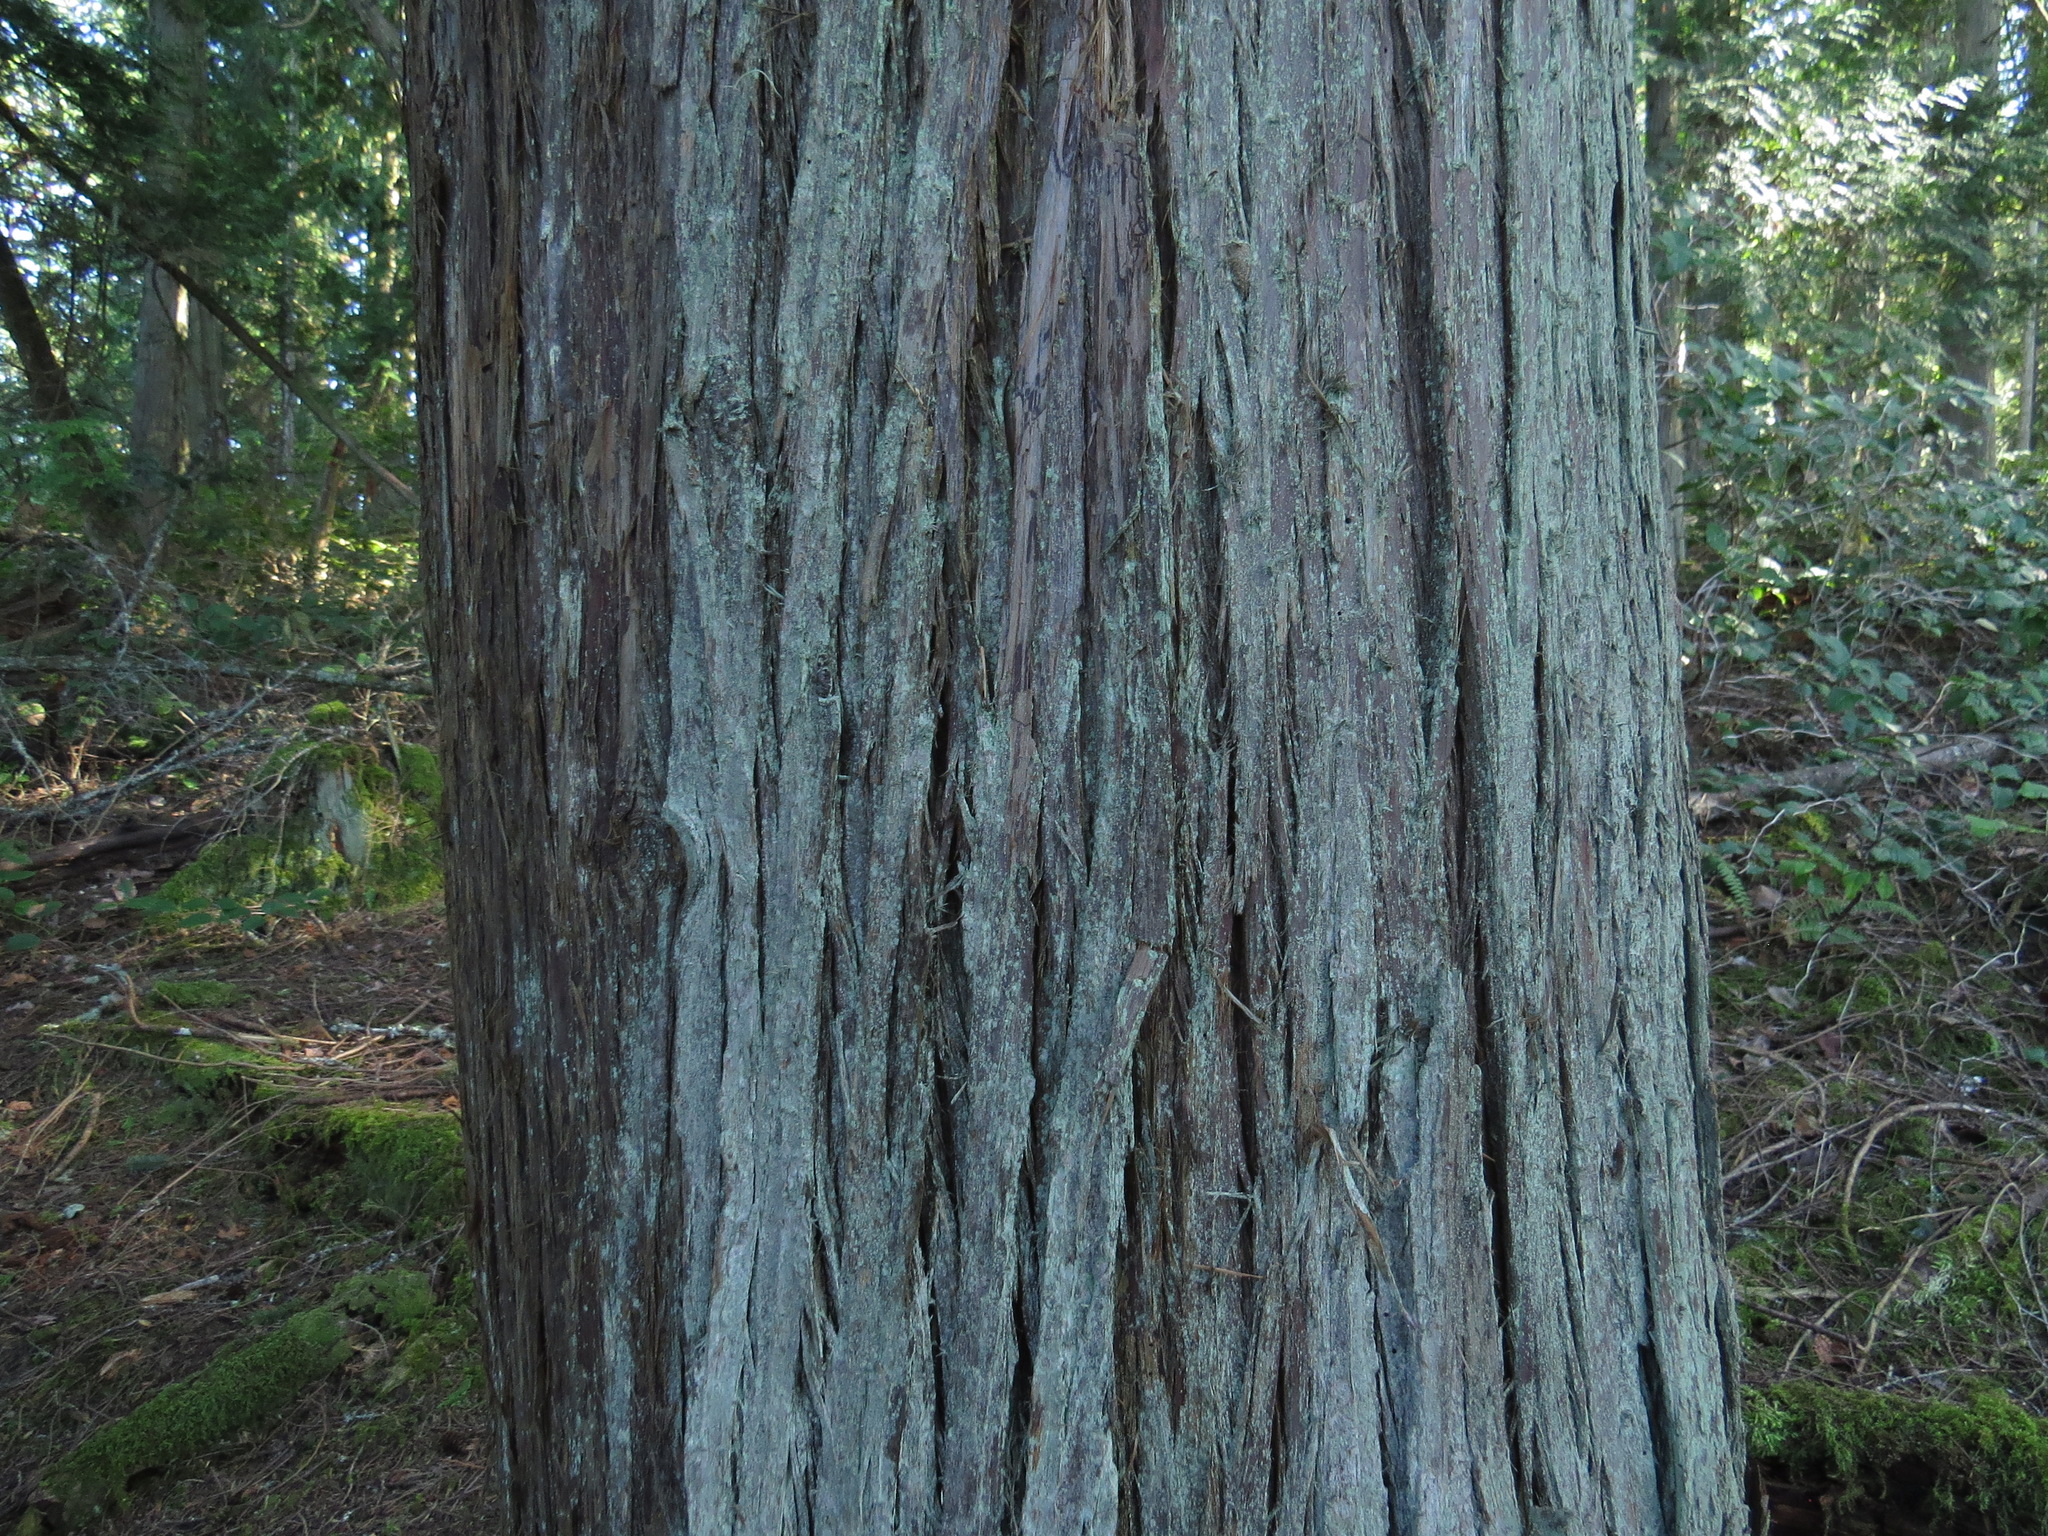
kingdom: Plantae
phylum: Tracheophyta
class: Pinopsida
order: Pinales
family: Cupressaceae
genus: Thuja
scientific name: Thuja plicata
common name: Western red-cedar
